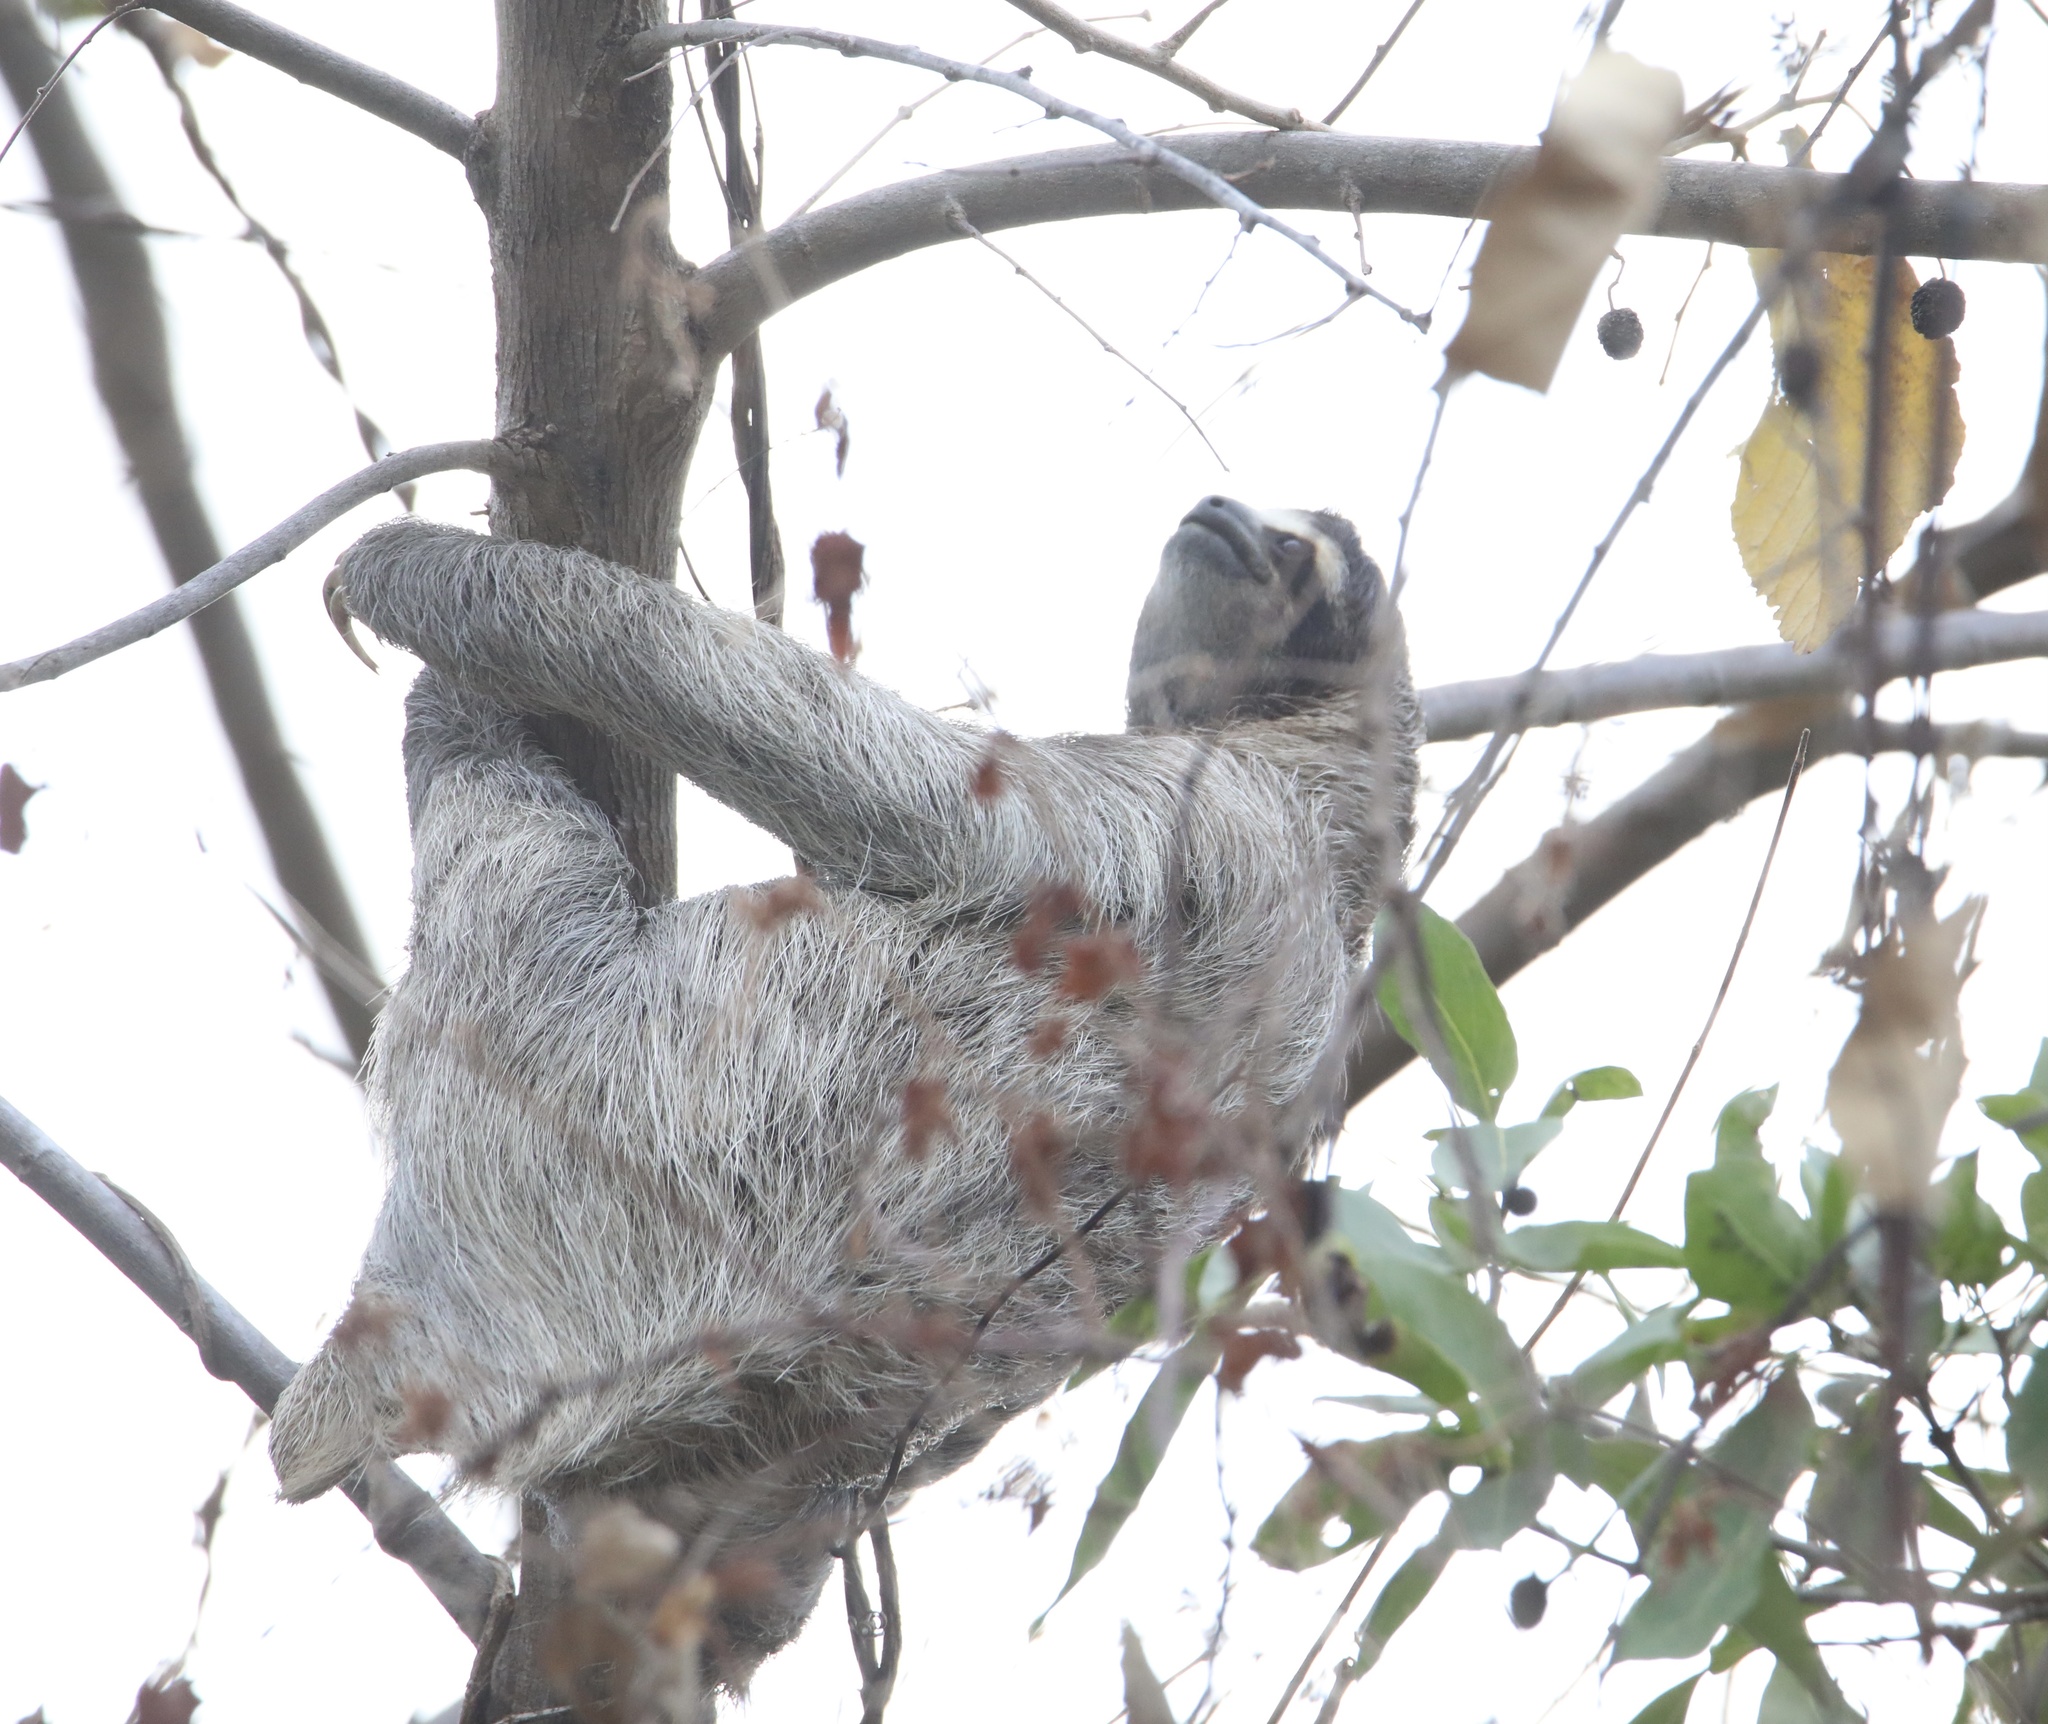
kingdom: Animalia
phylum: Chordata
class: Mammalia
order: Pilosa
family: Bradypodidae
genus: Bradypus
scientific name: Bradypus variegatus
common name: Brown-throated three-toed sloth
